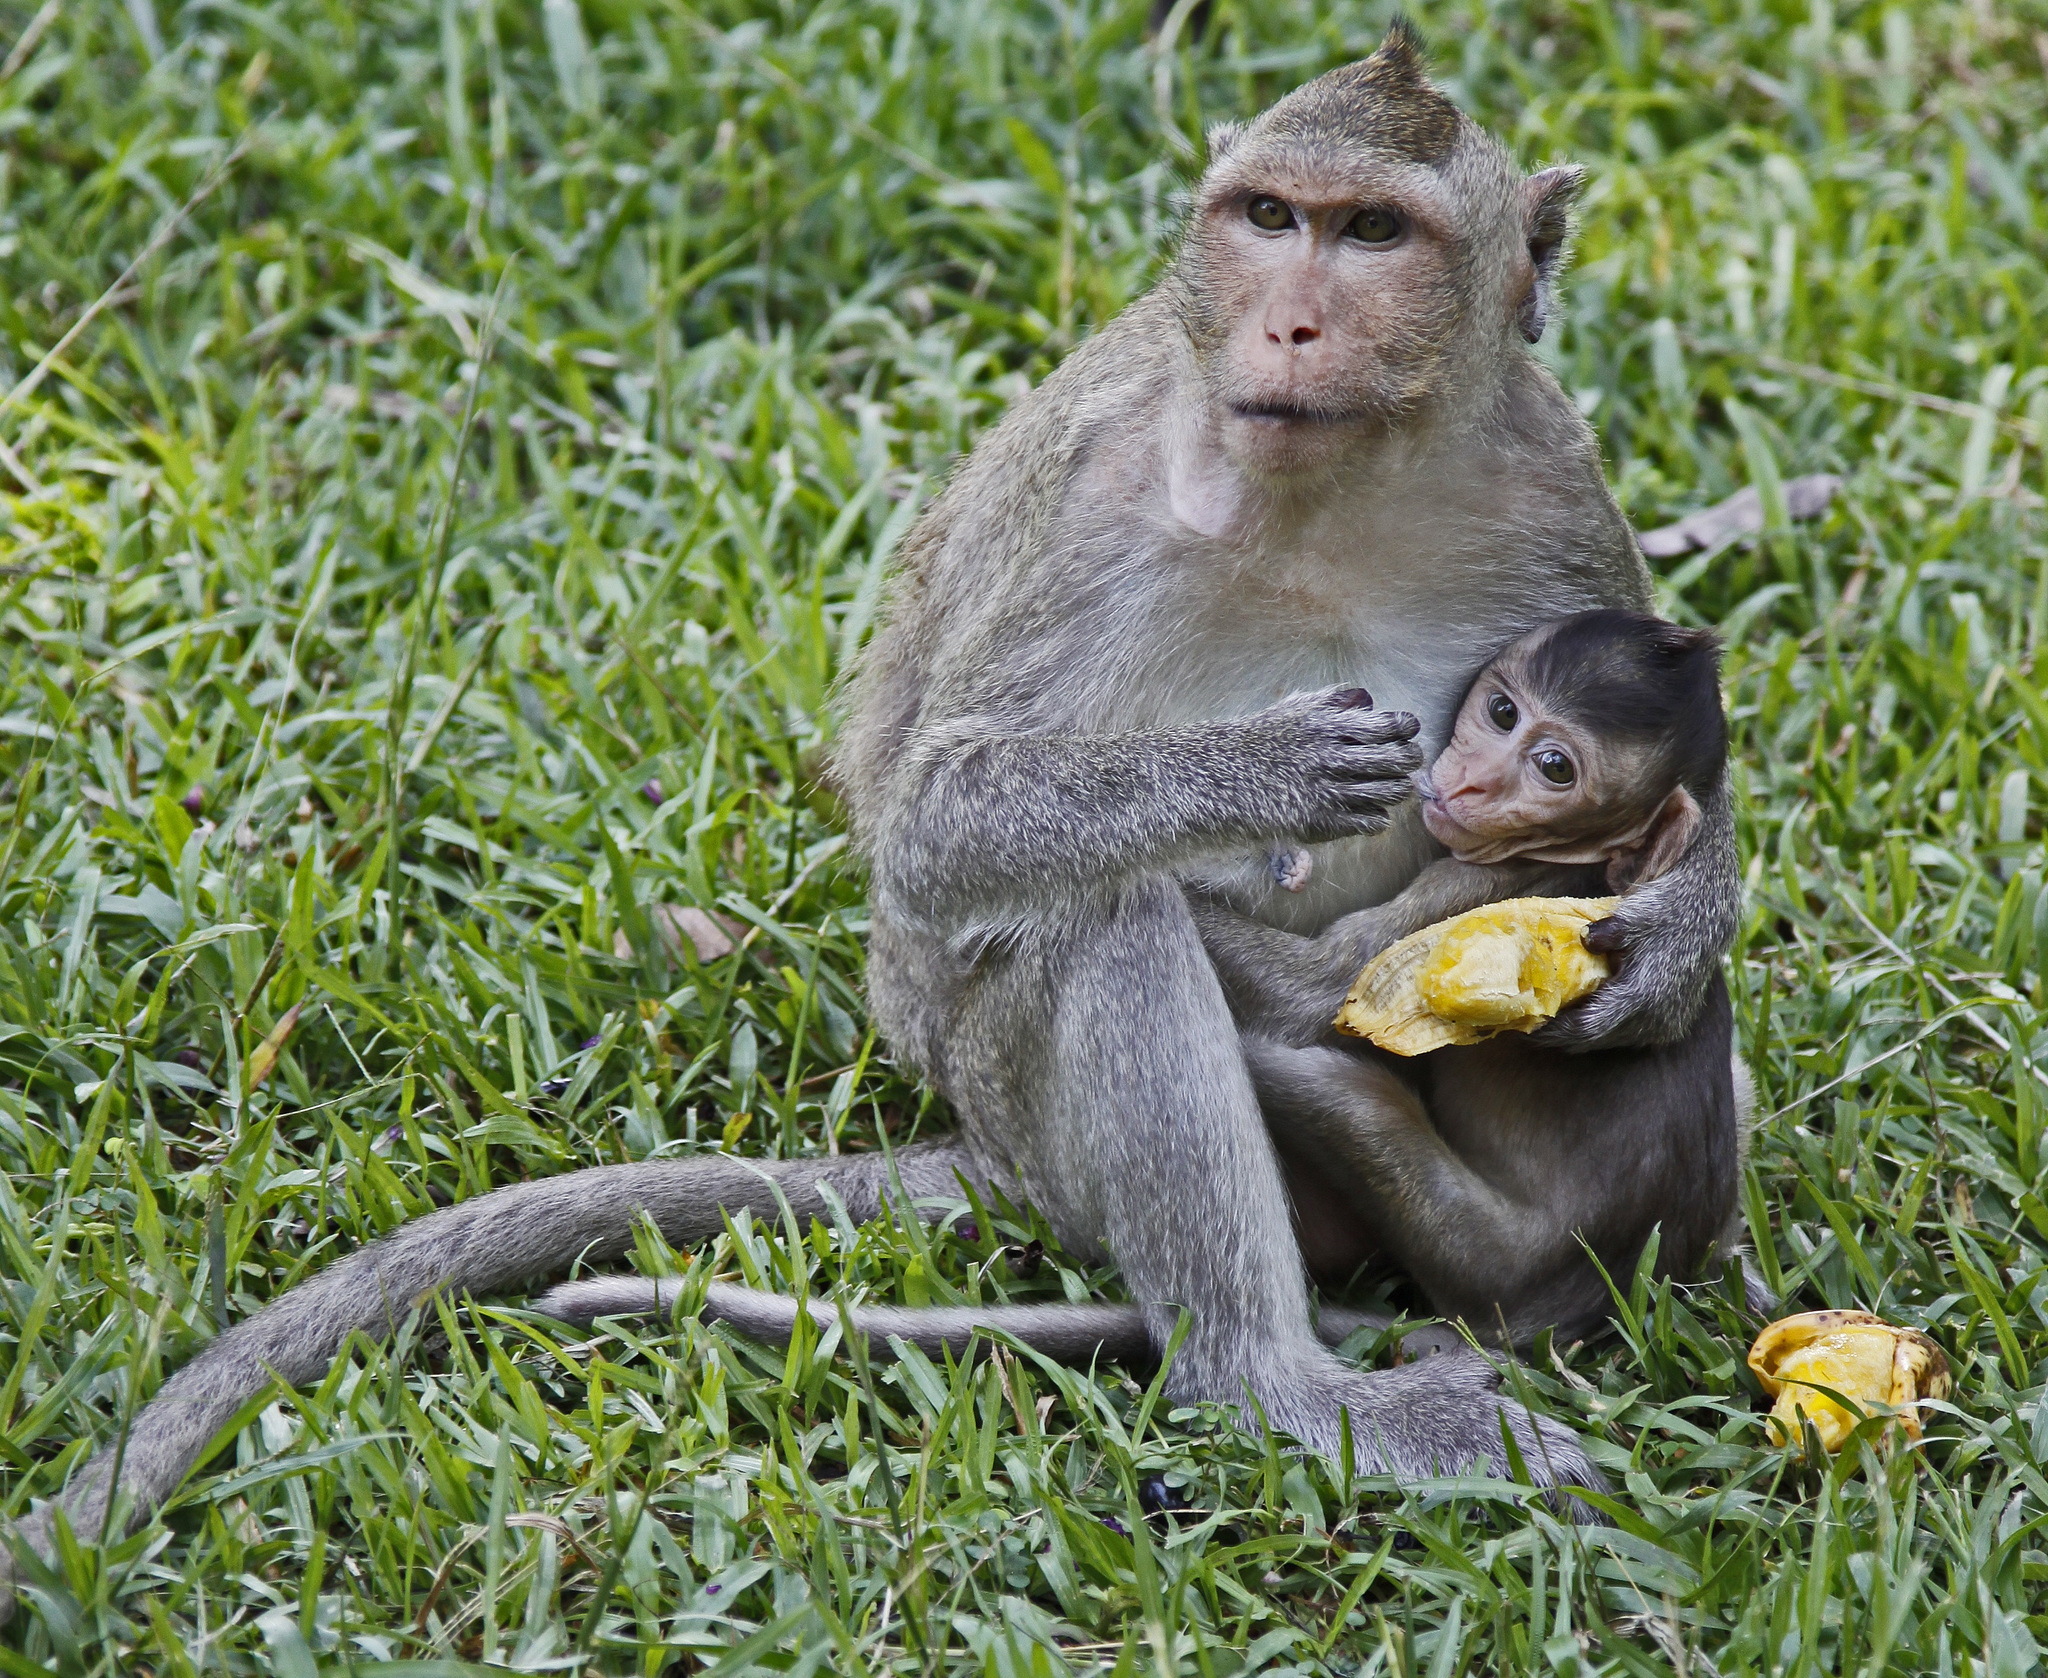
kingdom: Animalia
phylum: Chordata
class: Mammalia
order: Primates
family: Cercopithecidae
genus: Macaca
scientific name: Macaca fascicularis
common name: Crab-eating macaque
